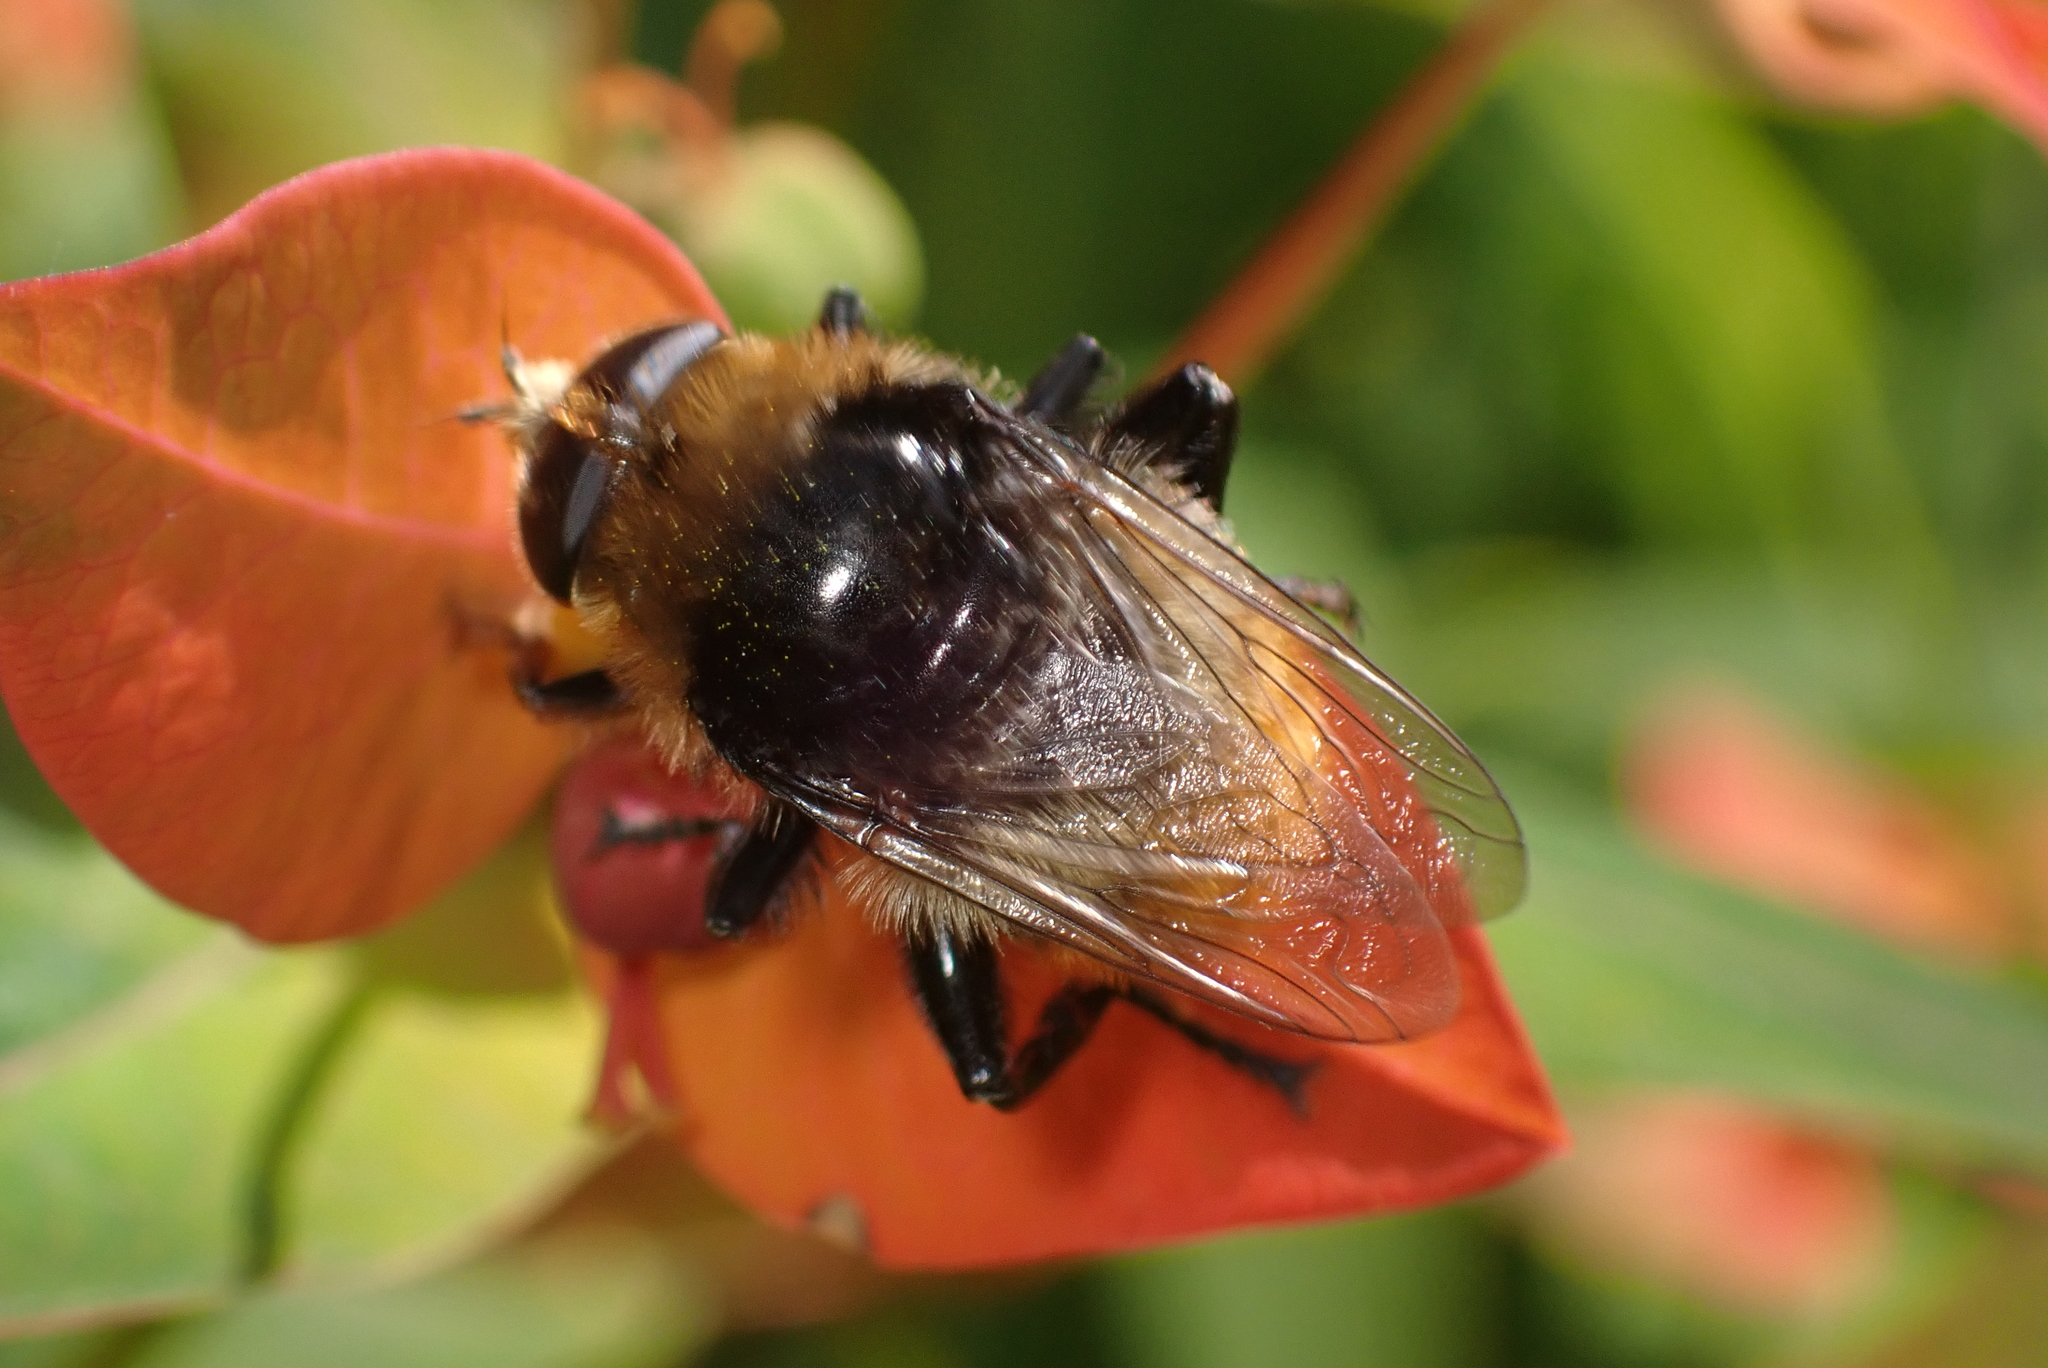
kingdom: Animalia
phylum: Arthropoda
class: Insecta
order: Diptera
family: Syrphidae
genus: Merodon
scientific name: Merodon equestris
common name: Greater bulb-fly
